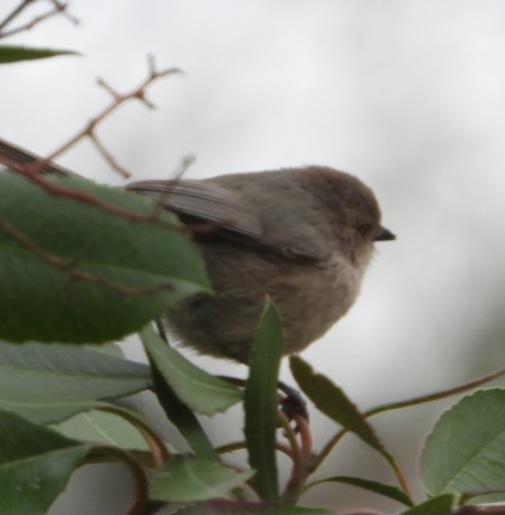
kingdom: Animalia
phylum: Chordata
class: Aves
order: Passeriformes
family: Aegithalidae
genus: Psaltriparus
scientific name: Psaltriparus minimus
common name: American bushtit
